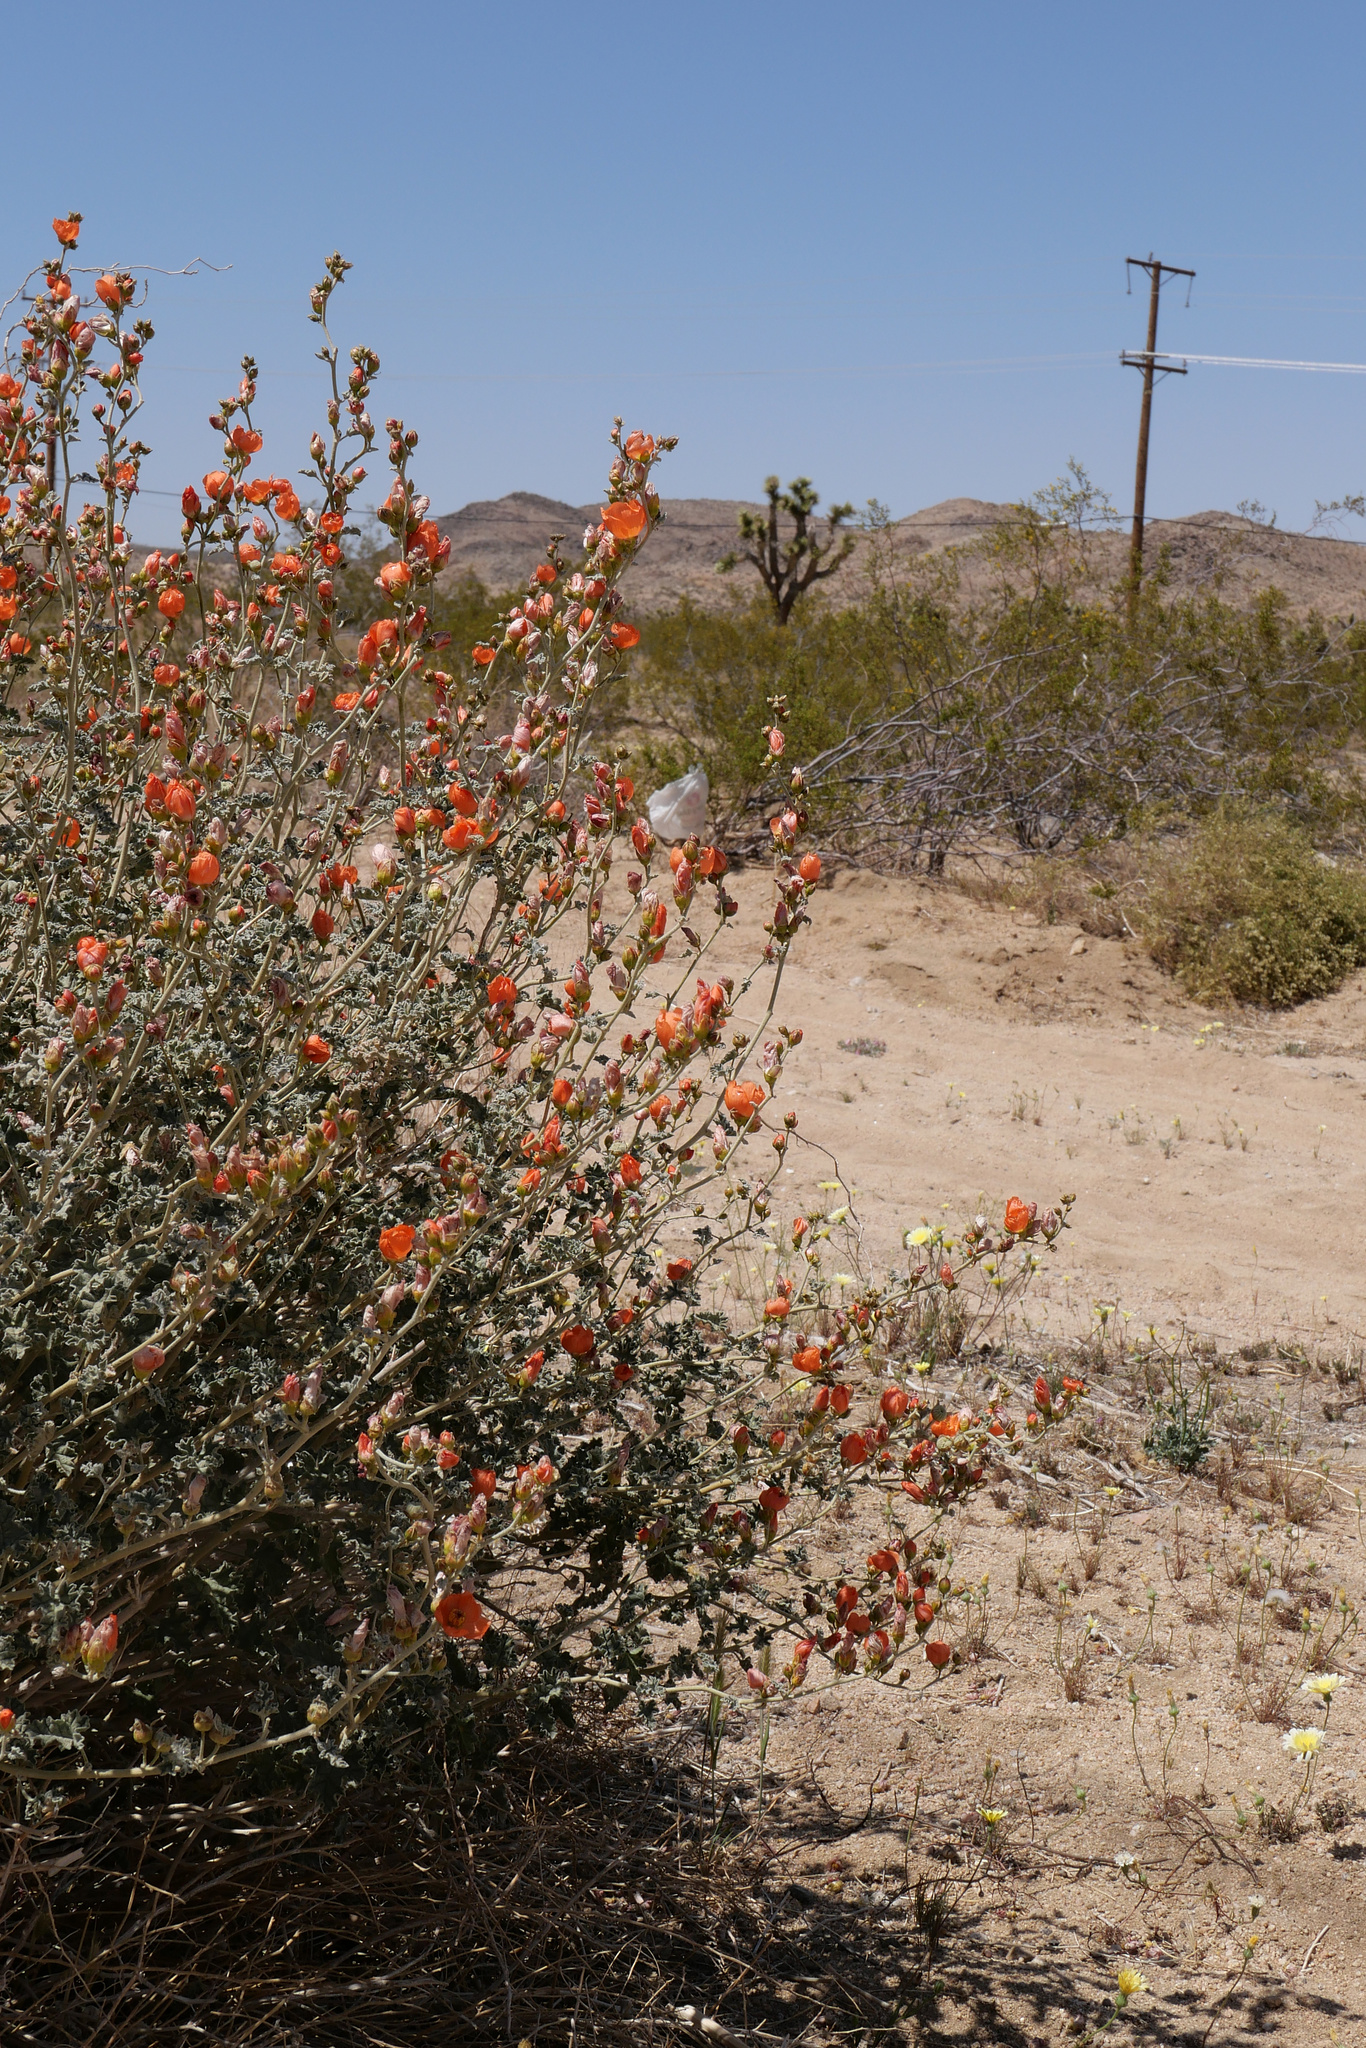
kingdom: Plantae
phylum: Tracheophyta
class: Magnoliopsida
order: Malvales
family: Malvaceae
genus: Sphaeralcea
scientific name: Sphaeralcea ambigua
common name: Apricot globe-mallow
